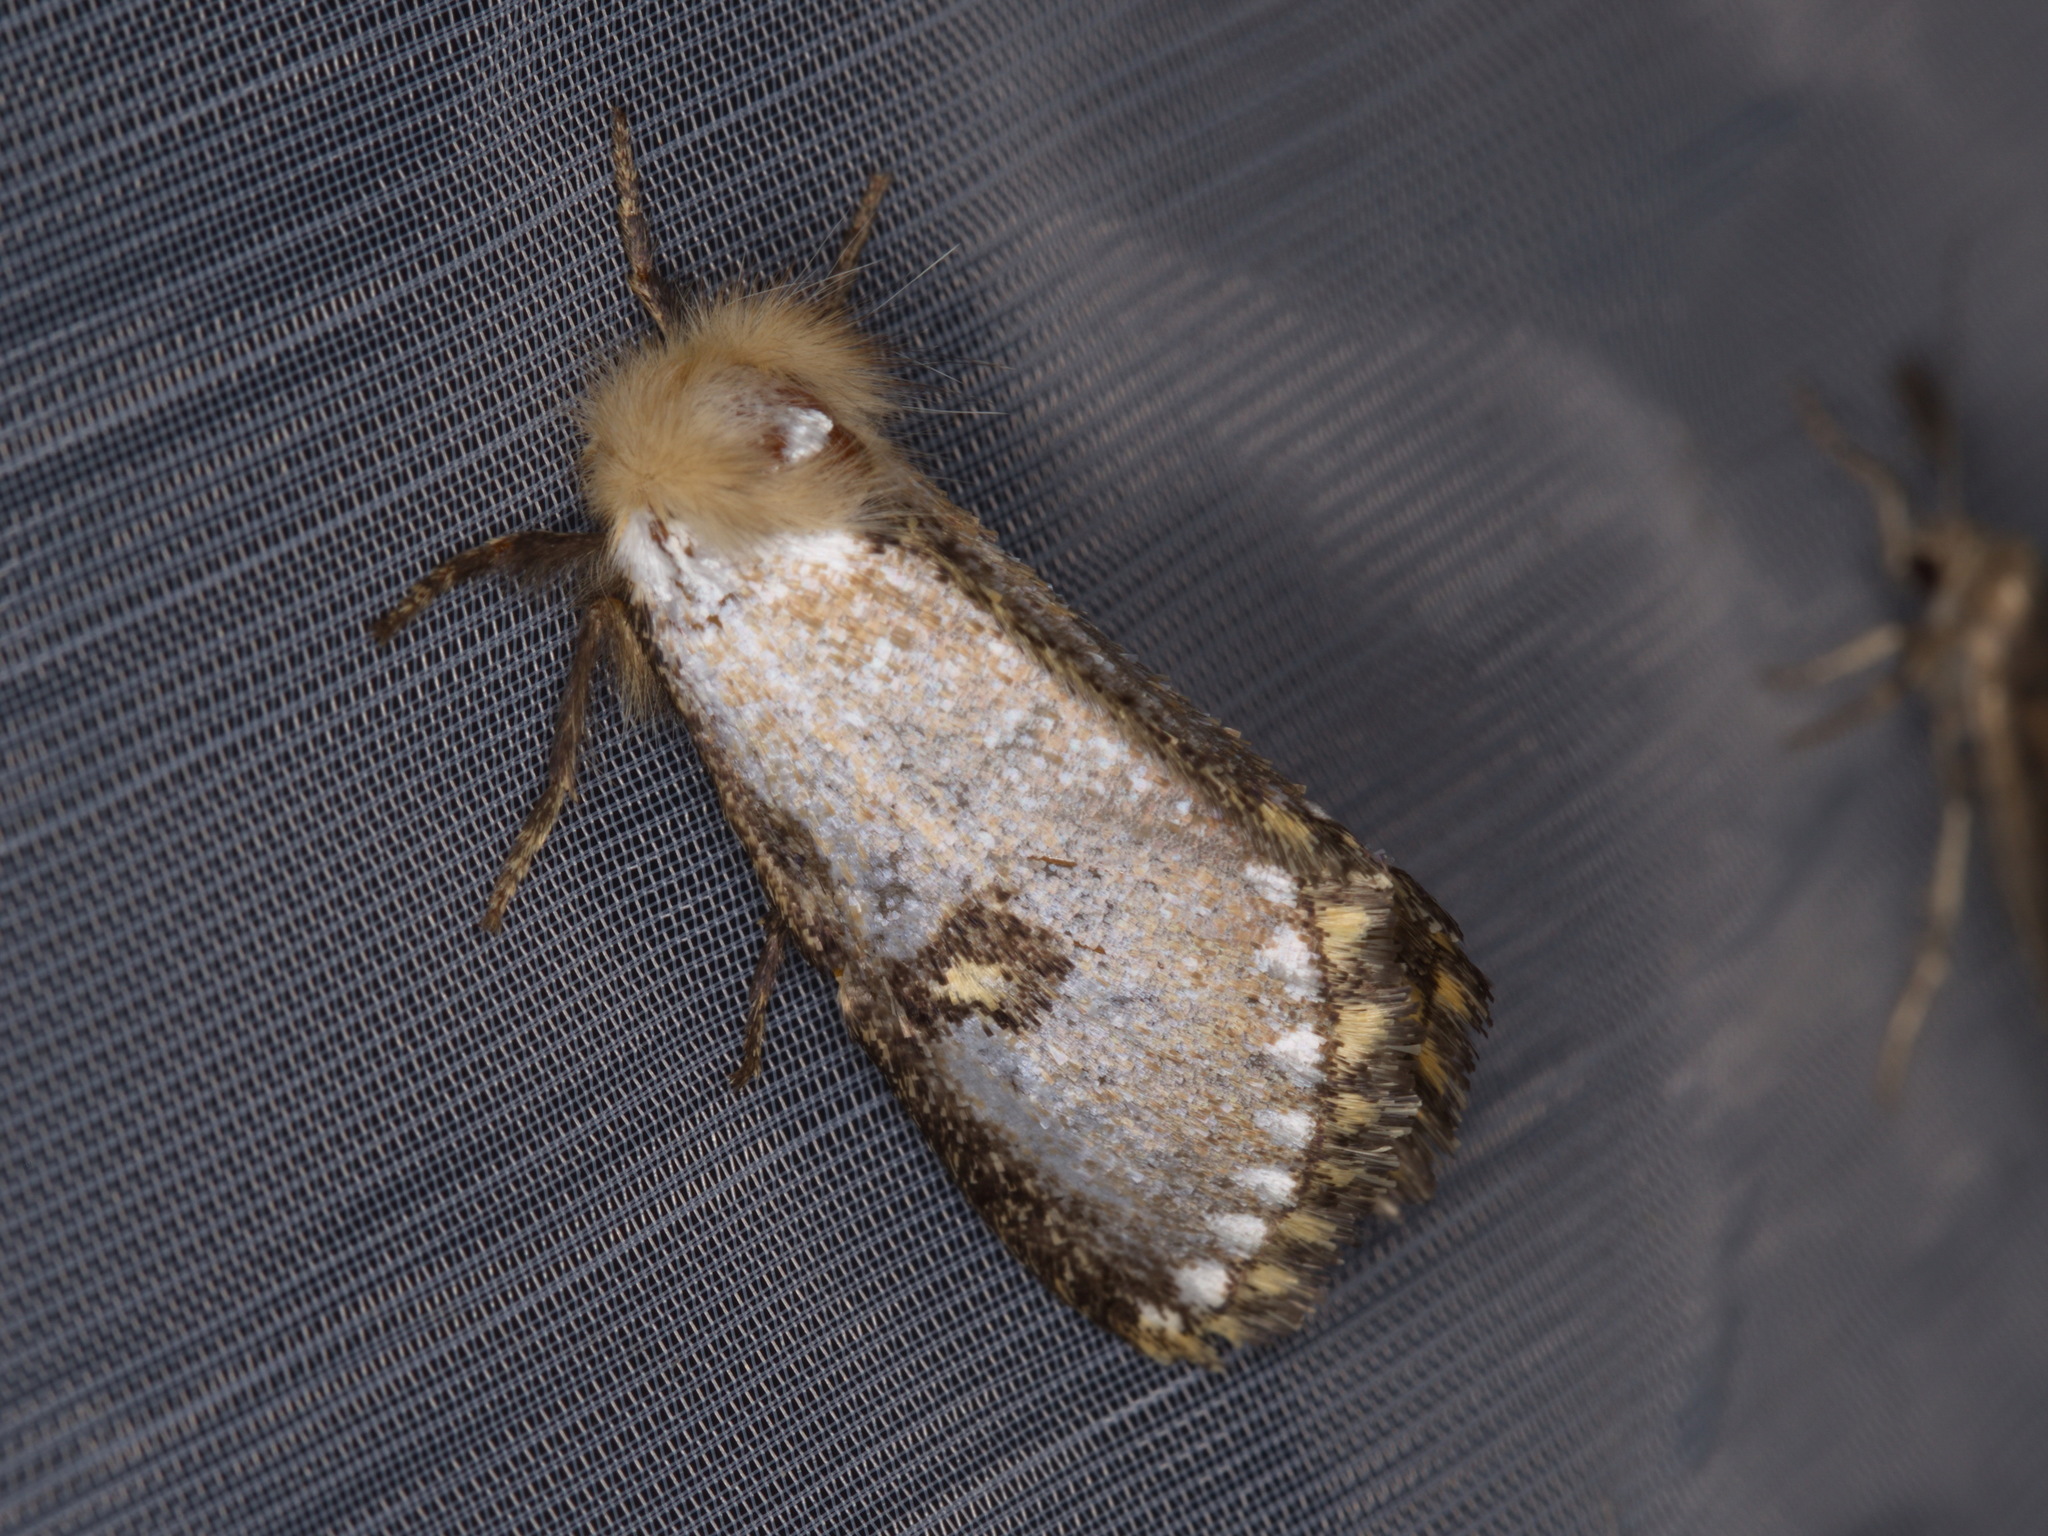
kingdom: Animalia
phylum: Arthropoda
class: Insecta
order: Lepidoptera
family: Notodontidae
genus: Epicoma
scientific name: Epicoma contristis
